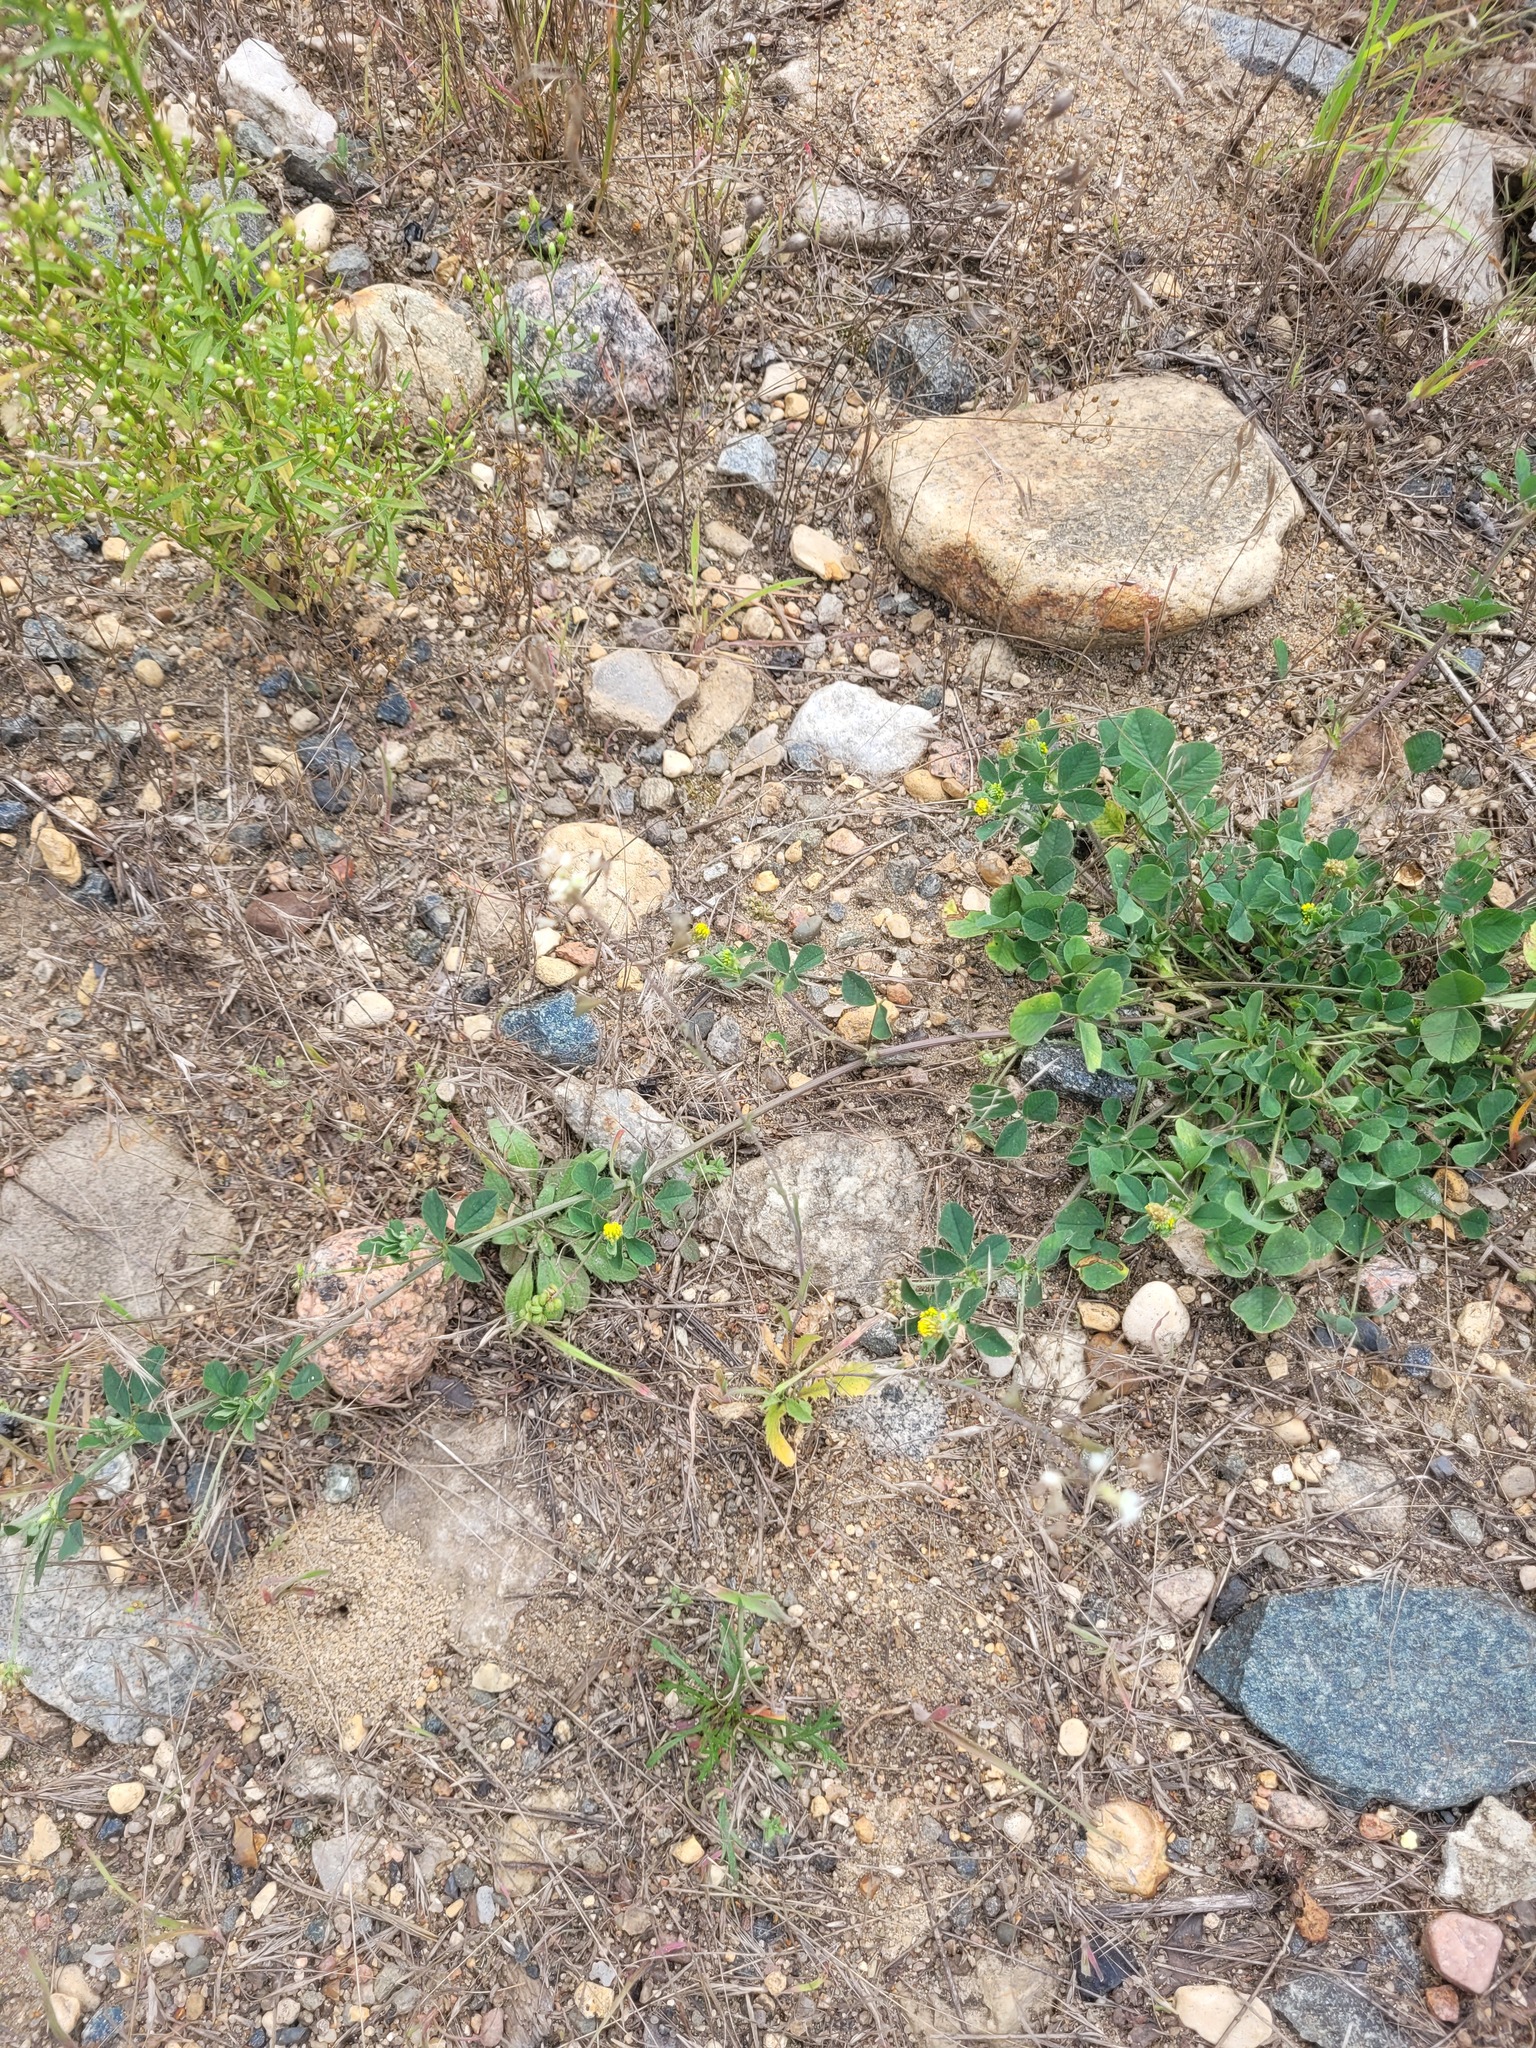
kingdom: Plantae
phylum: Tracheophyta
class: Magnoliopsida
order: Fabales
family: Fabaceae
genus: Medicago
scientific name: Medicago lupulina
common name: Black medick
